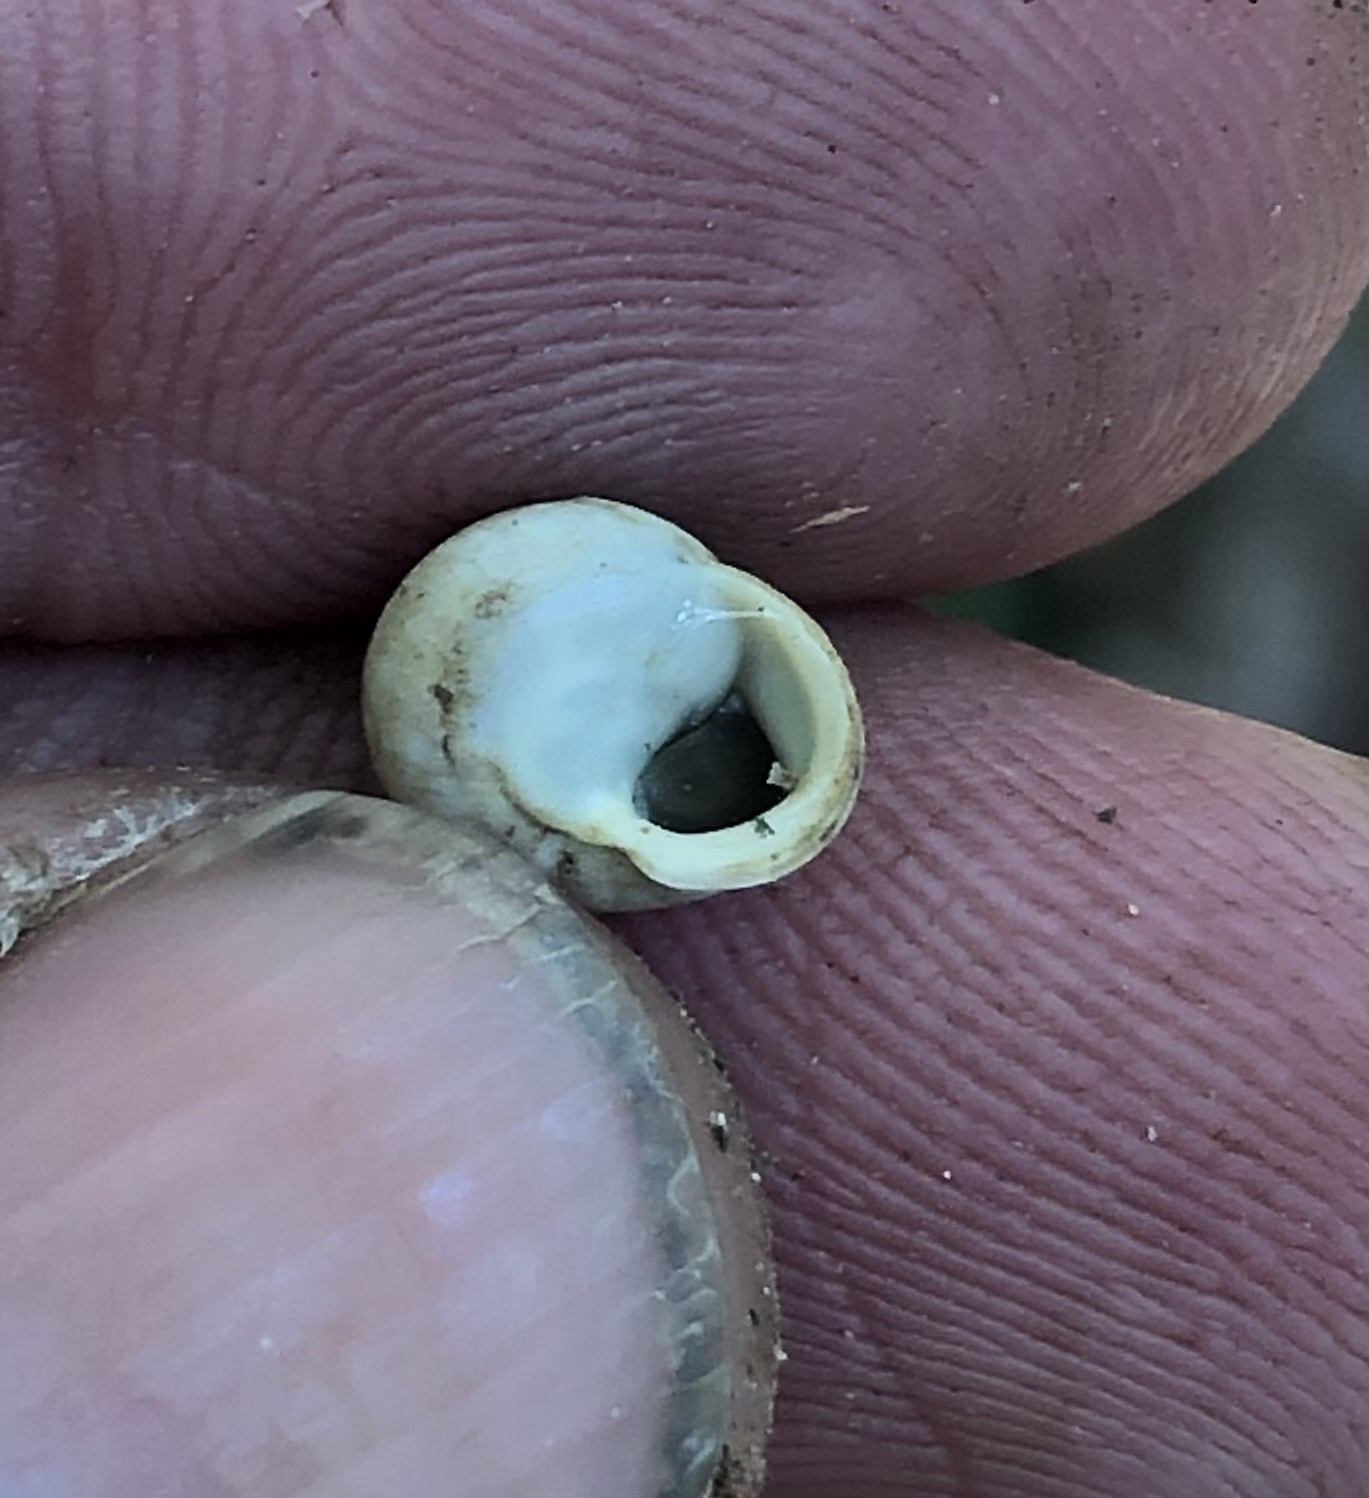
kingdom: Animalia
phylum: Mollusca
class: Gastropoda
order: Cycloneritida
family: Helicinidae
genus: Helicina
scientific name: Helicina orbiculata
